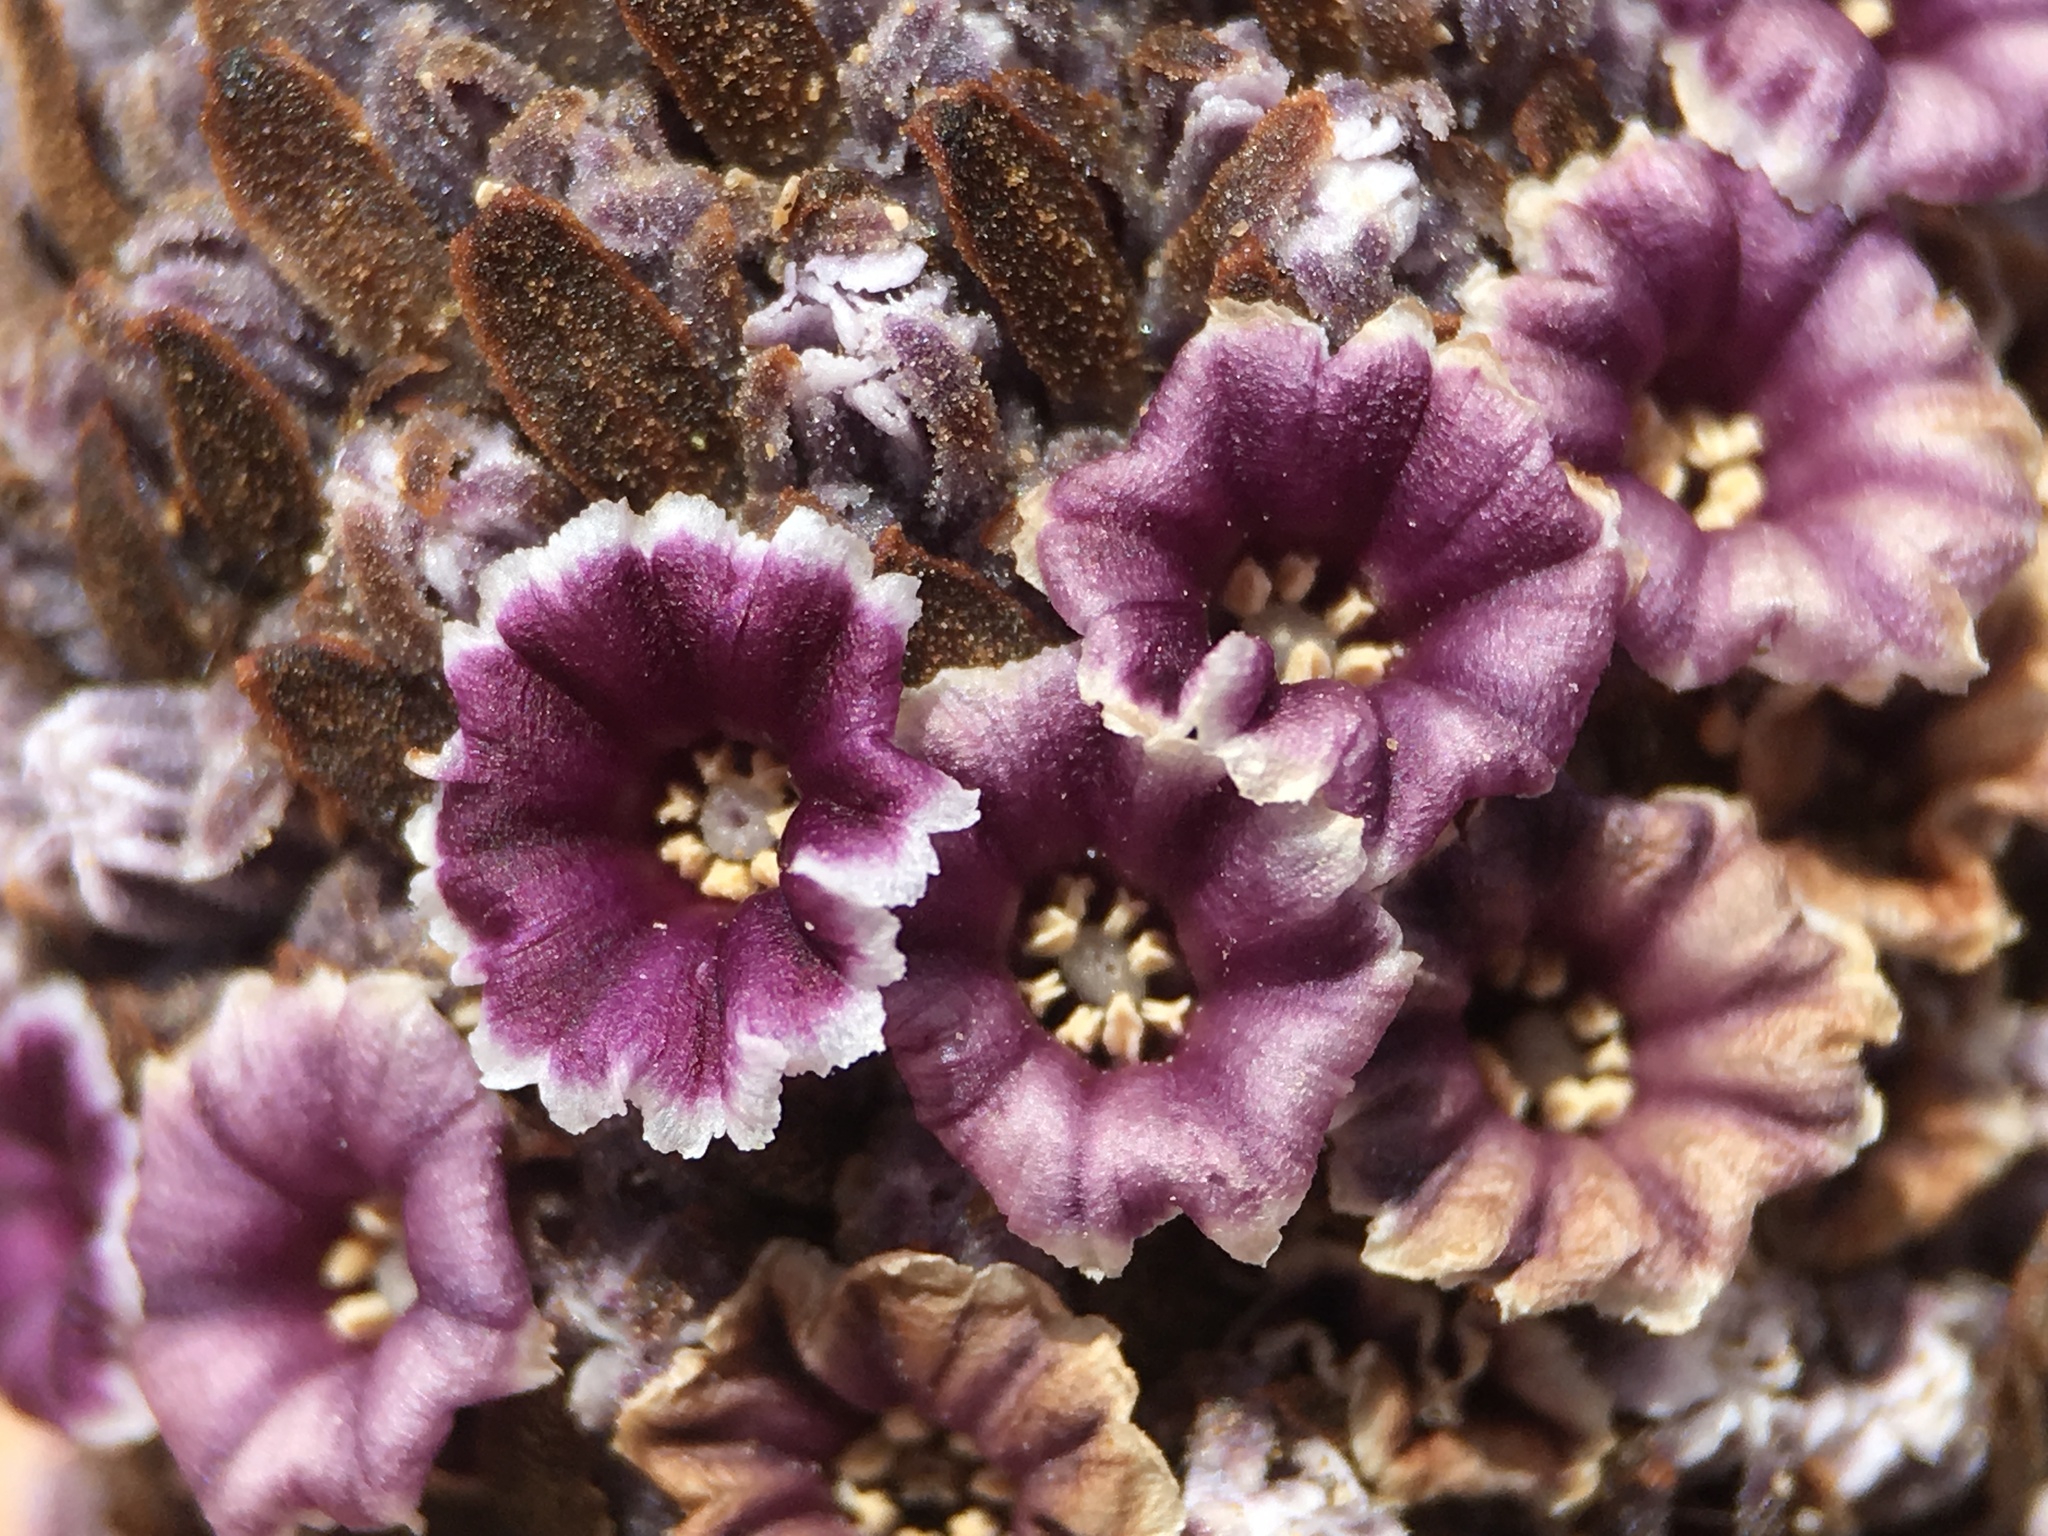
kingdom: Plantae
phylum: Tracheophyta
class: Magnoliopsida
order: Boraginales
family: Lennoaceae
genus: Pholisma
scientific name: Pholisma arenarium
